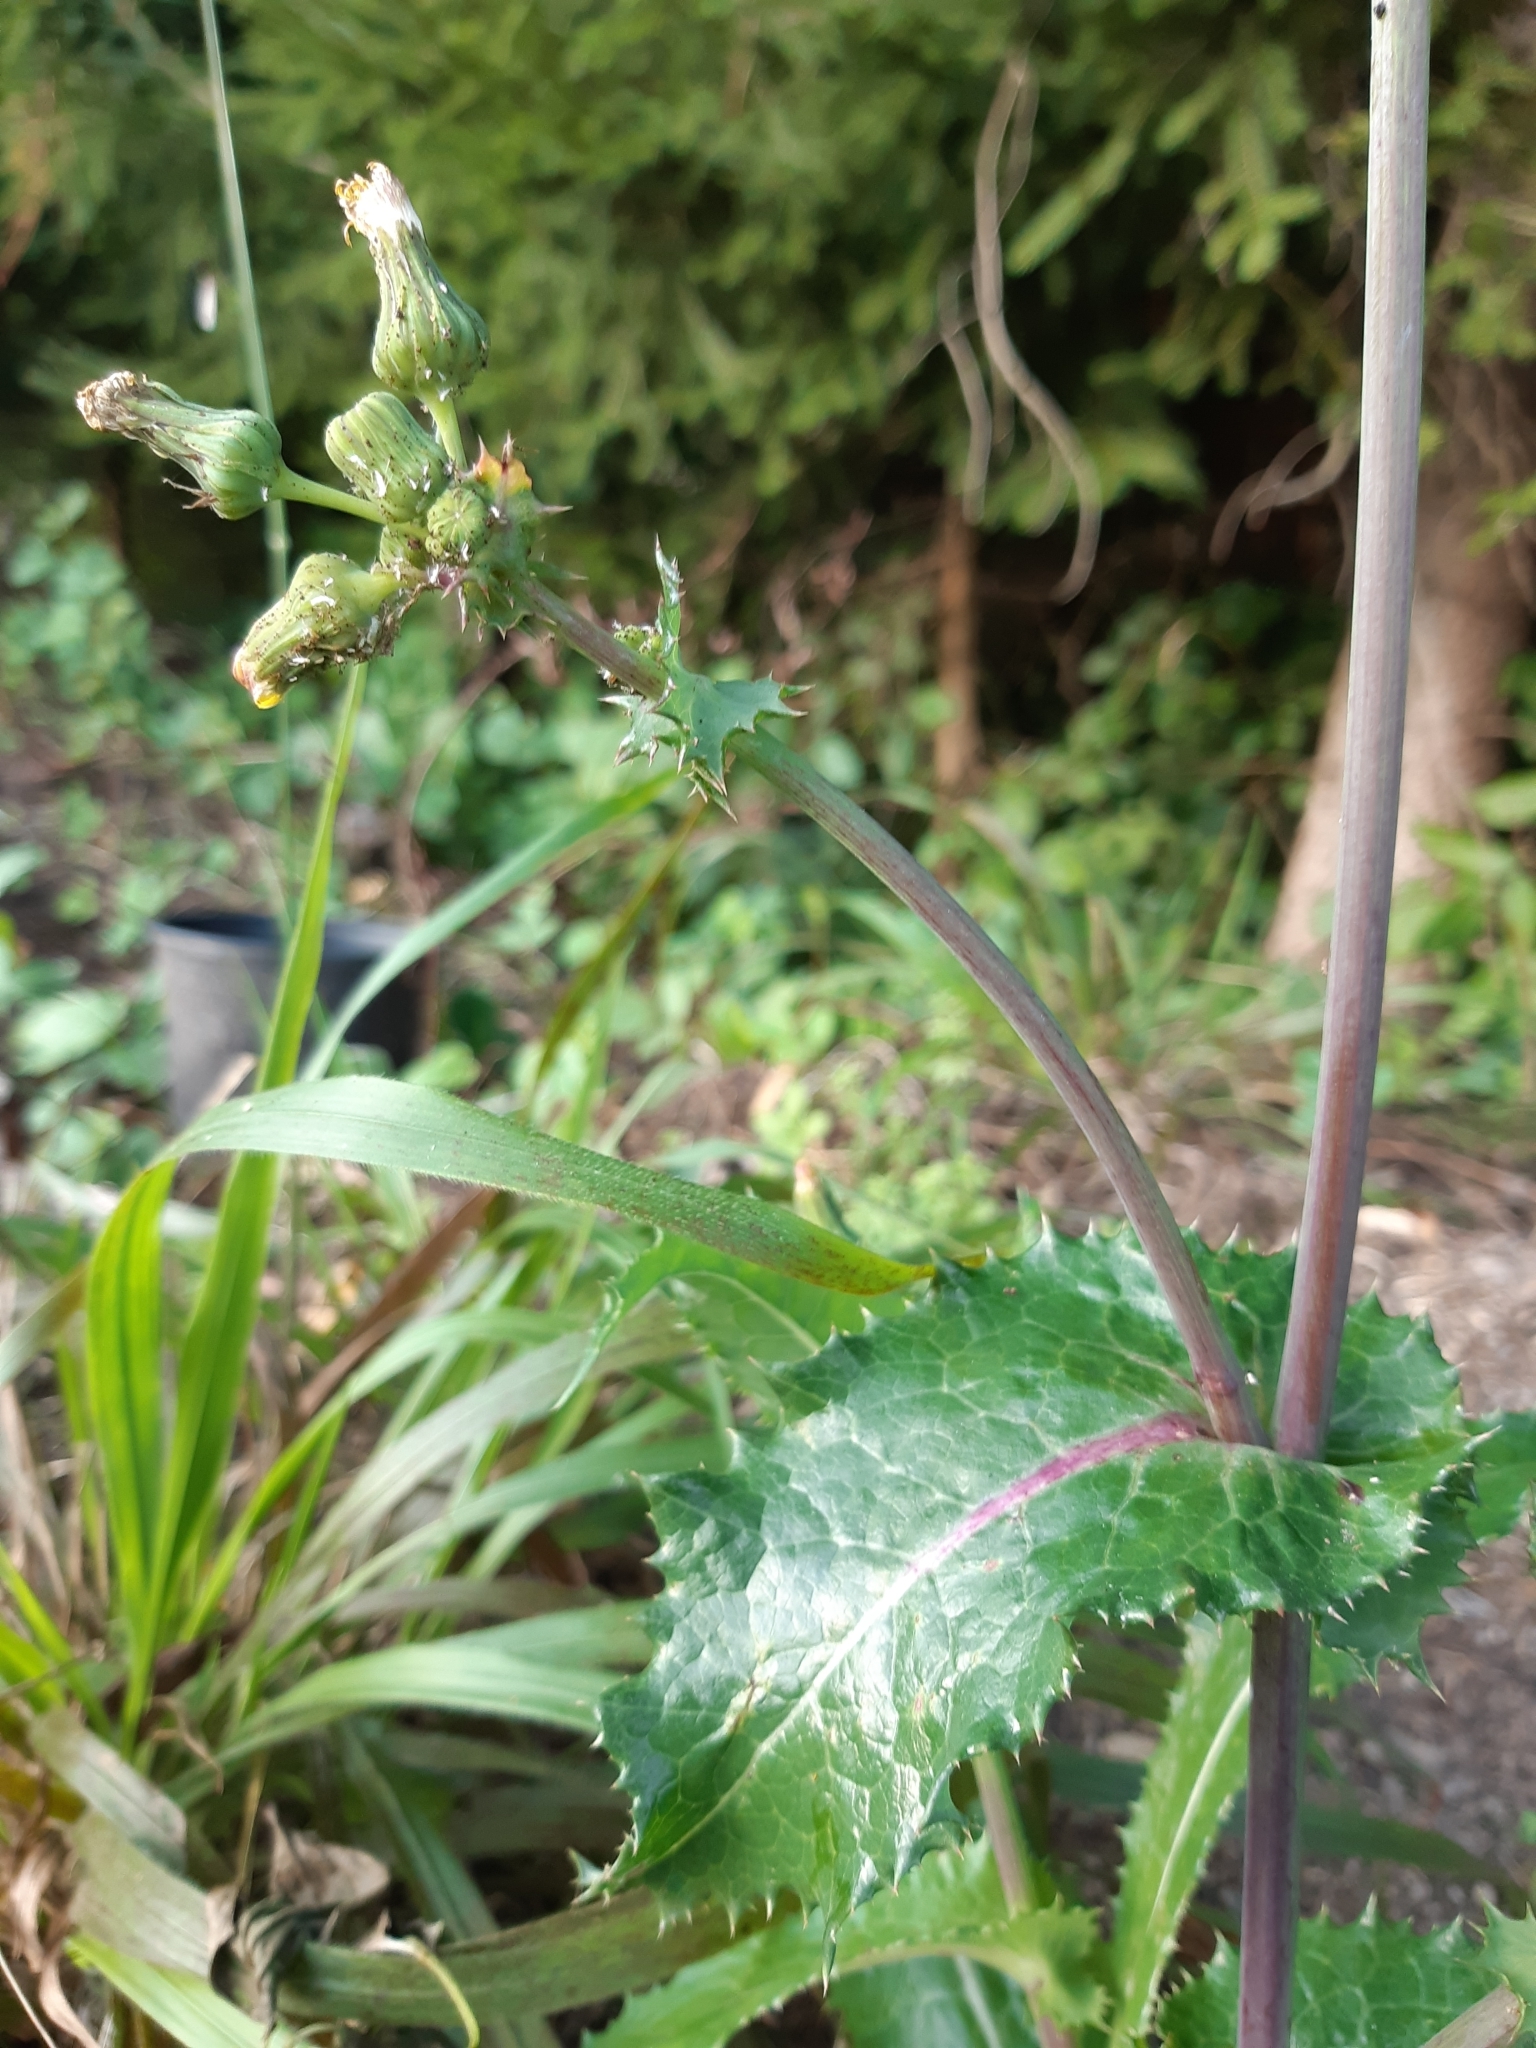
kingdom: Plantae
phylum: Tracheophyta
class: Magnoliopsida
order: Asterales
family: Asteraceae
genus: Sonchus
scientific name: Sonchus asper
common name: Prickly sow-thistle
